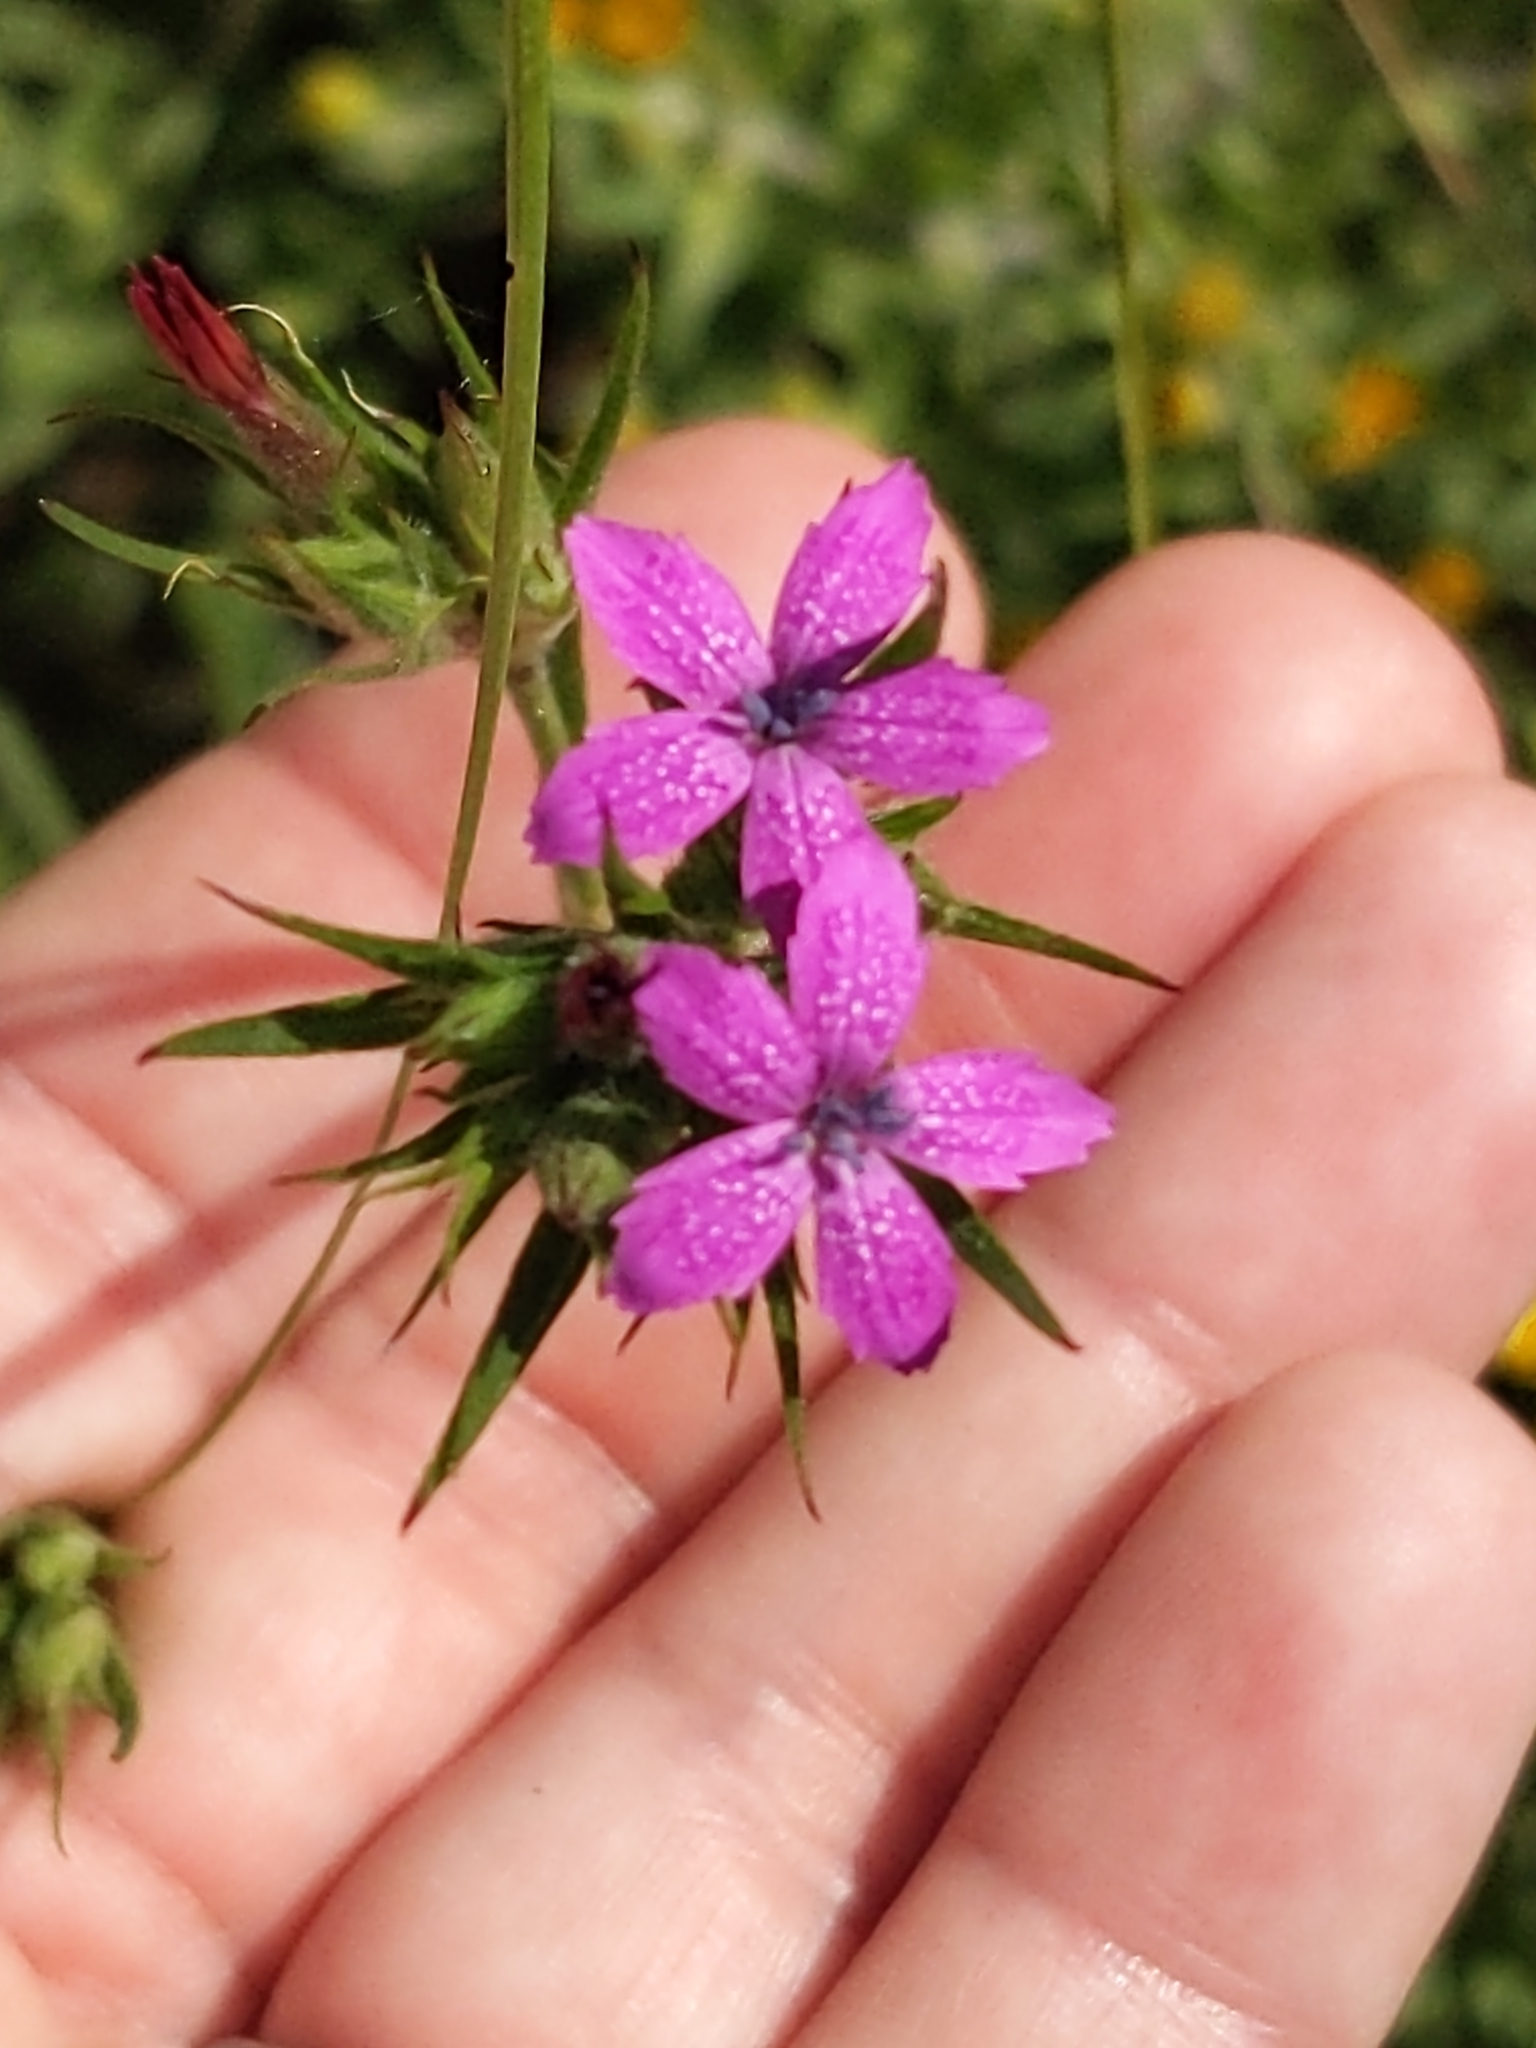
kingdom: Plantae
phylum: Tracheophyta
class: Magnoliopsida
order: Caryophyllales
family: Caryophyllaceae
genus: Dianthus
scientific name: Dianthus armeria
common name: Deptford pink
